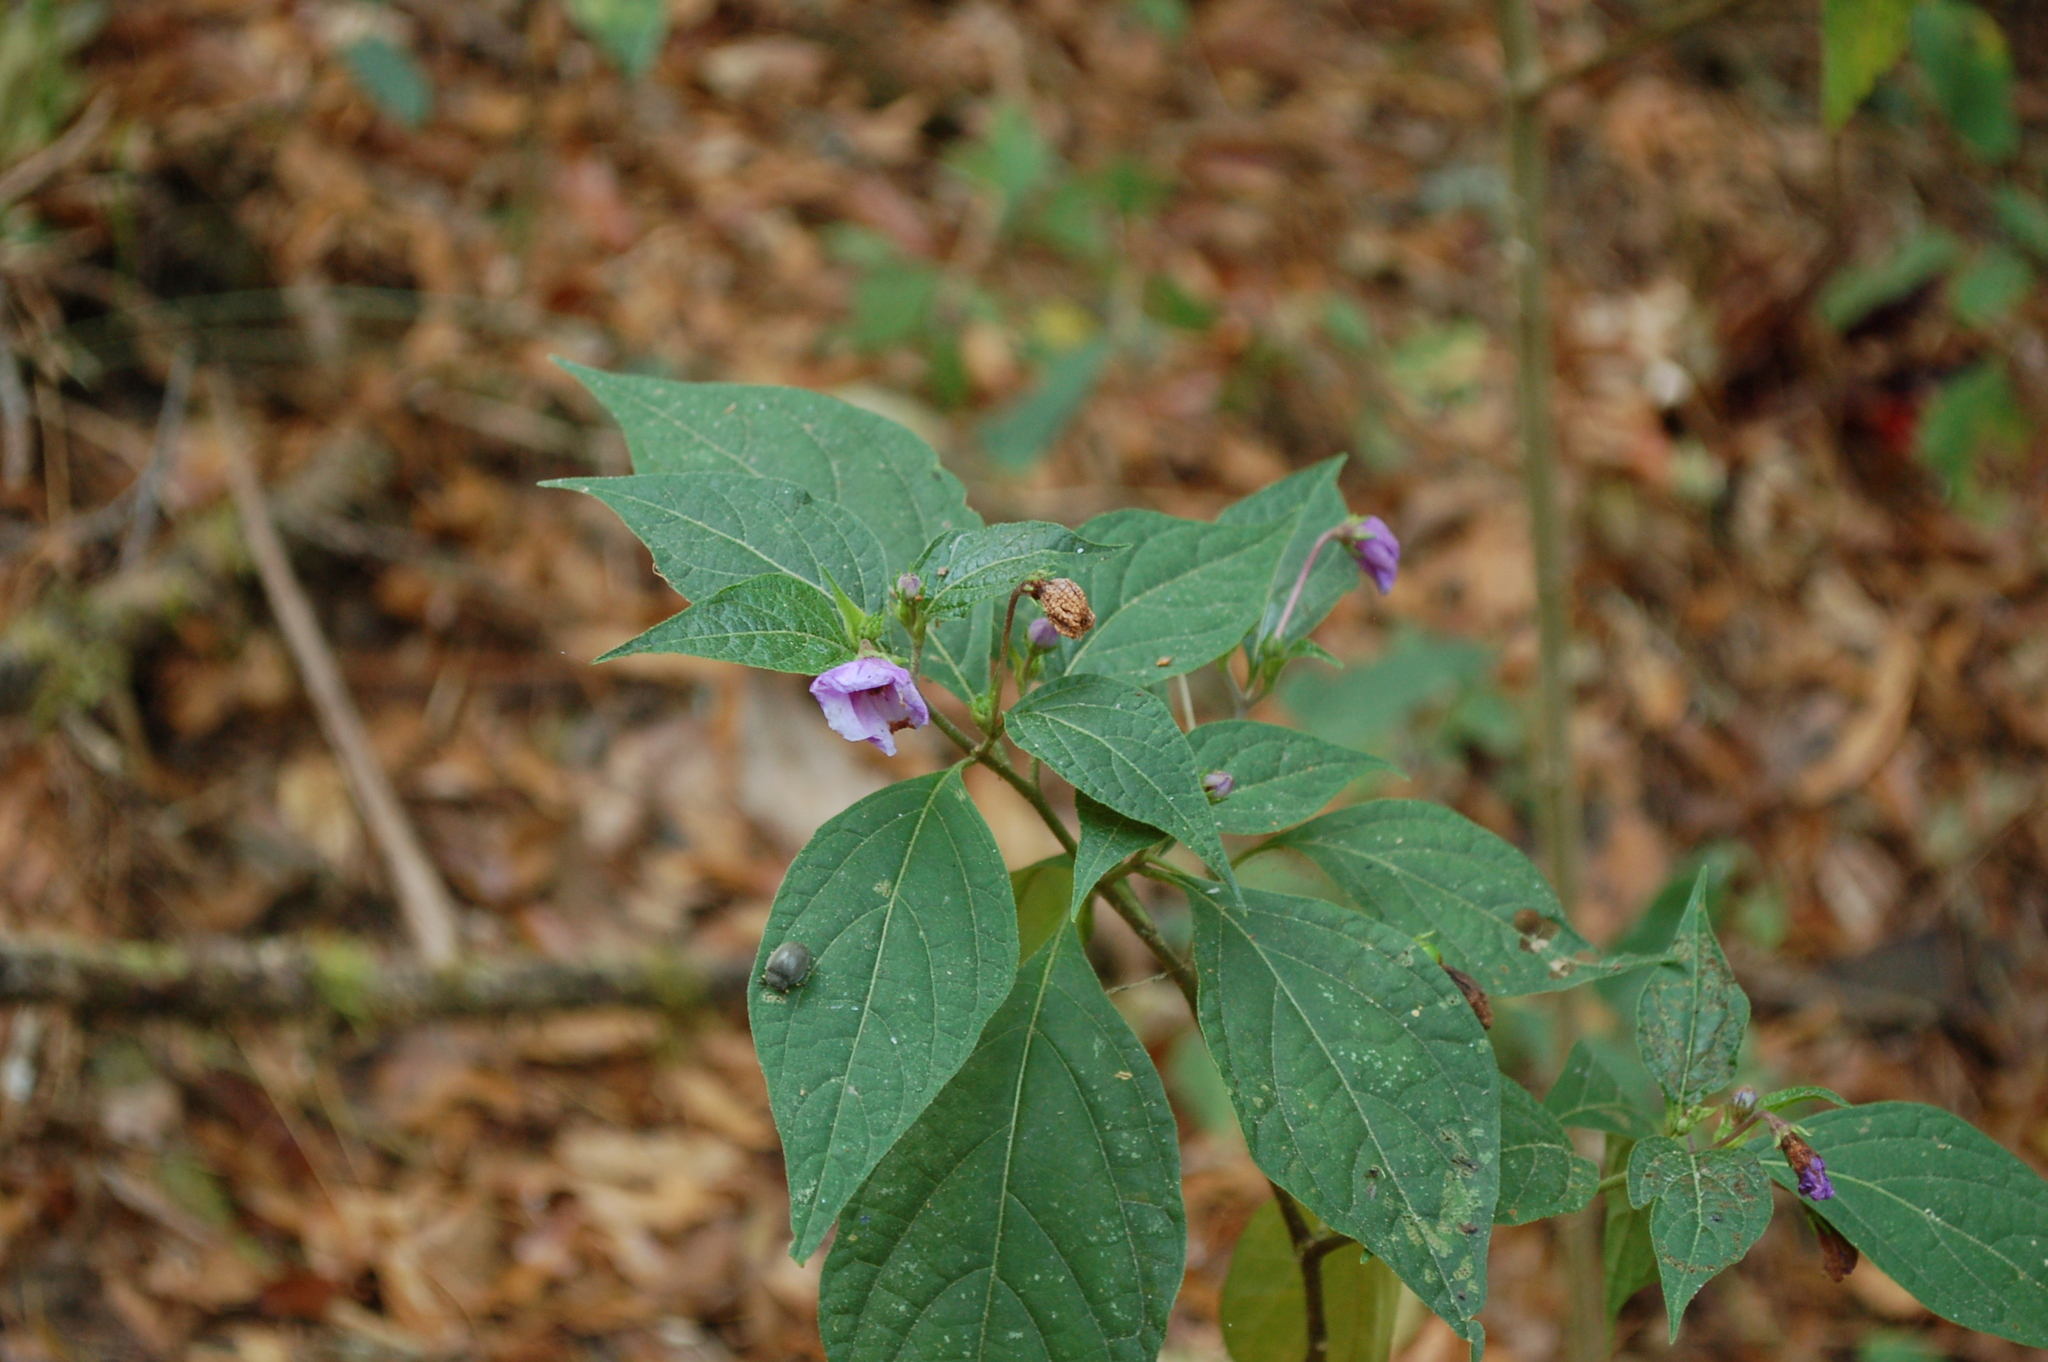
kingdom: Plantae
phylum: Tracheophyta
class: Magnoliopsida
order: Solanales
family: Solanaceae
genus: Lycianthes
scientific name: Lycianthes quichensis
